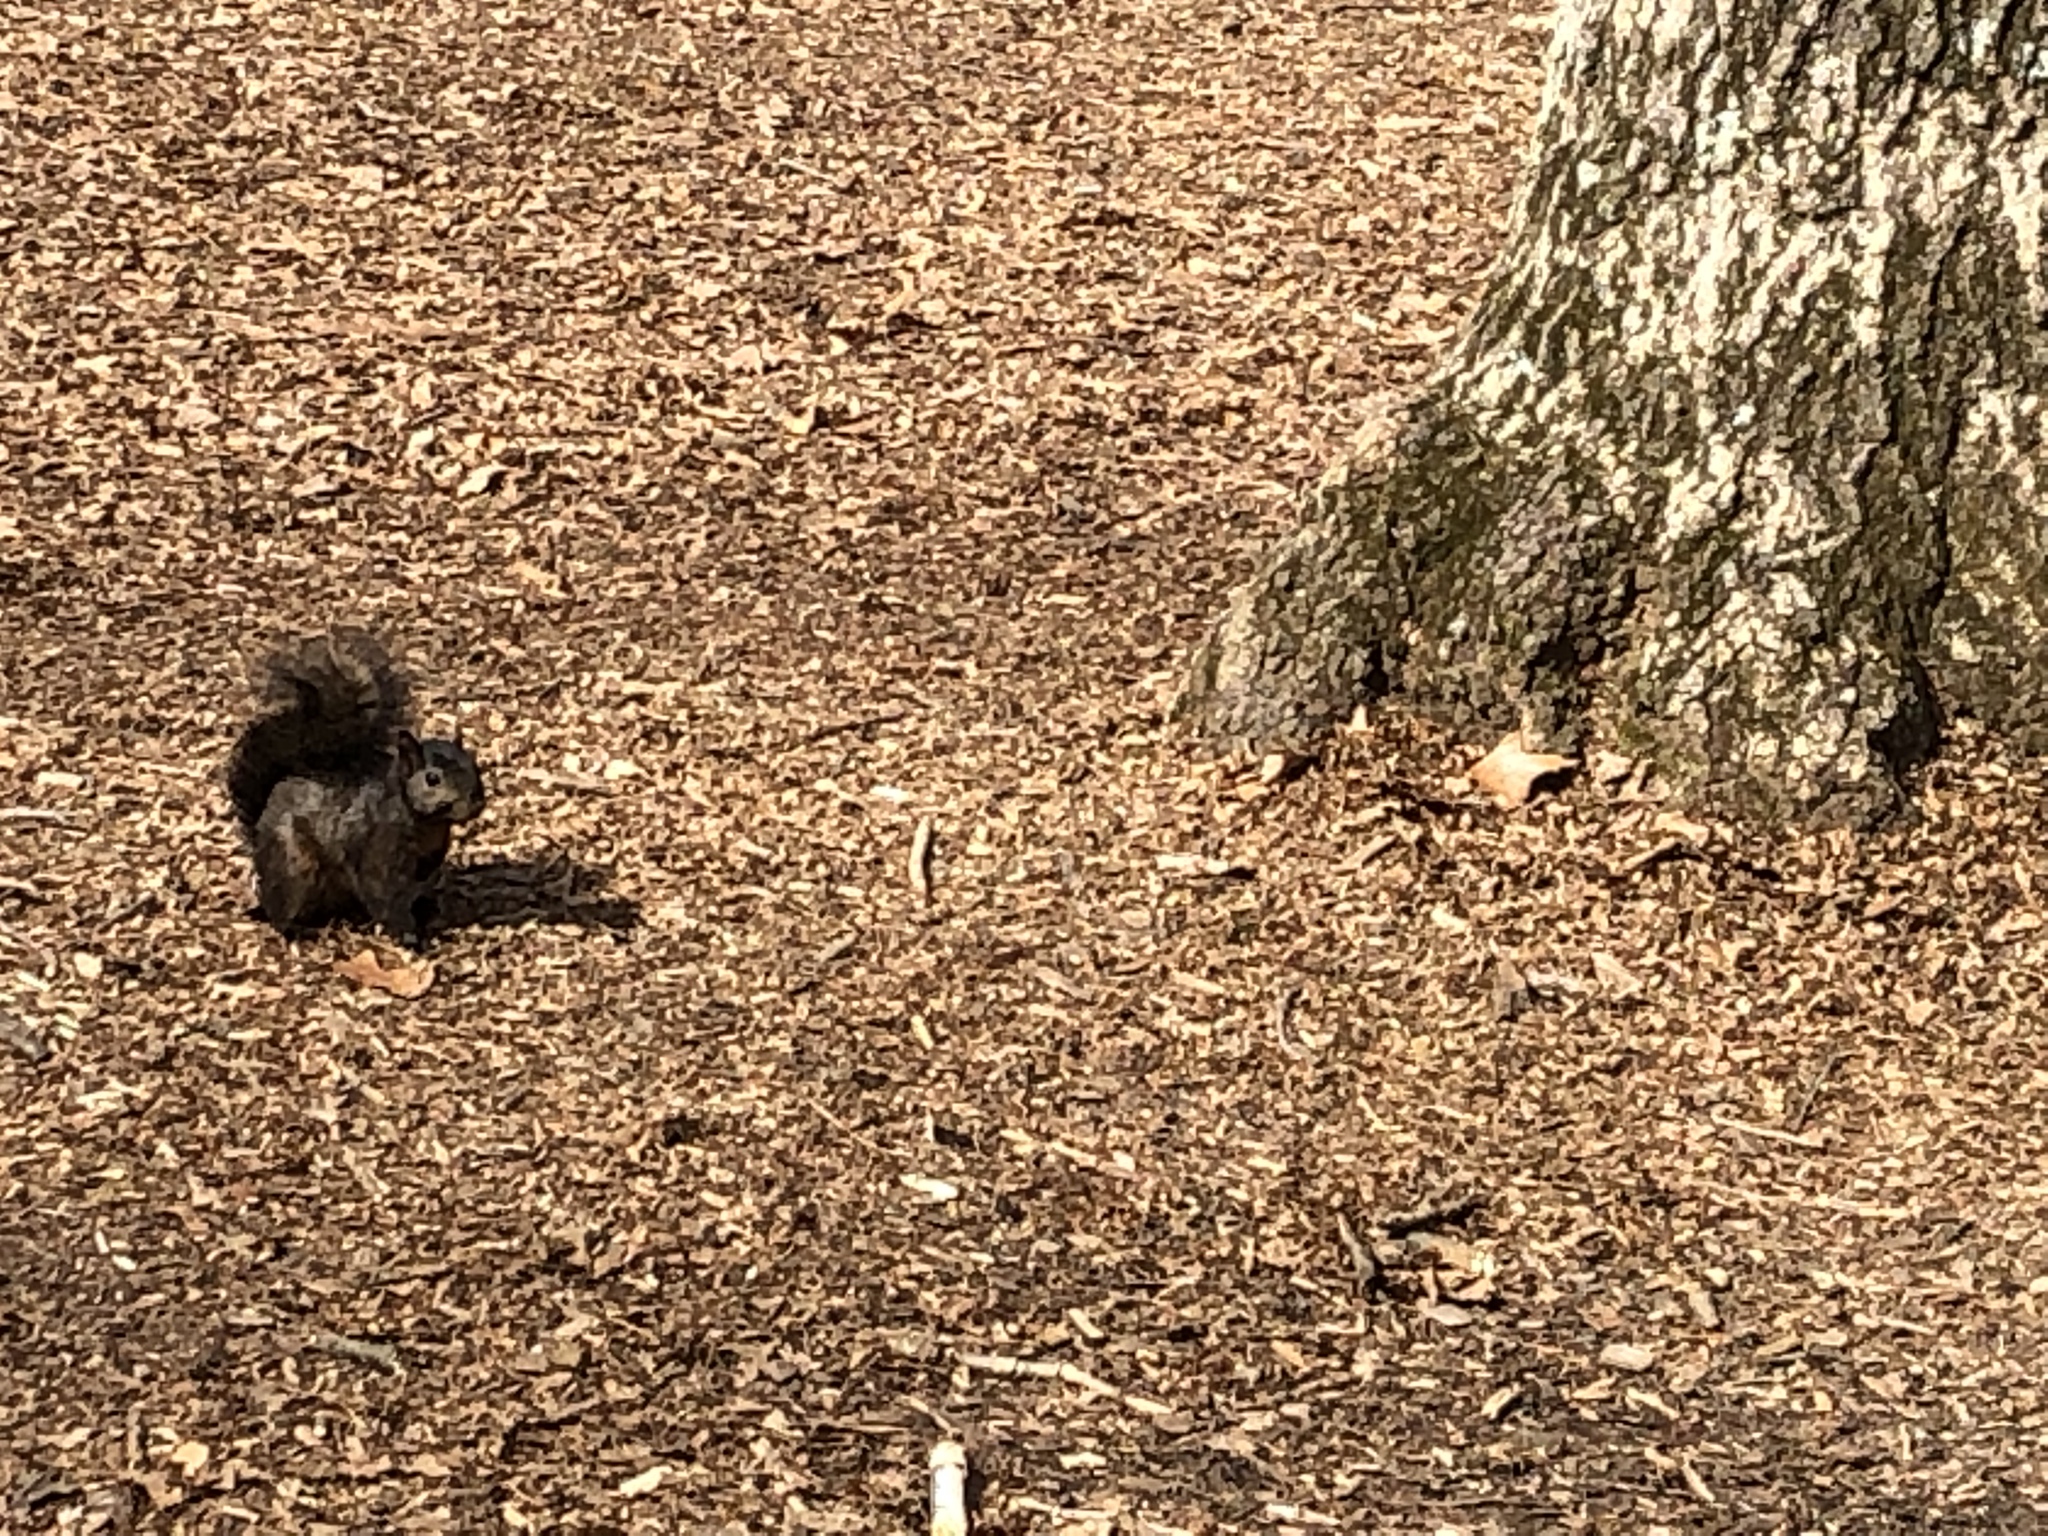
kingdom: Animalia
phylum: Chordata
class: Mammalia
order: Rodentia
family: Sciuridae
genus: Sciurus
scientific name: Sciurus carolinensis
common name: Eastern gray squirrel
